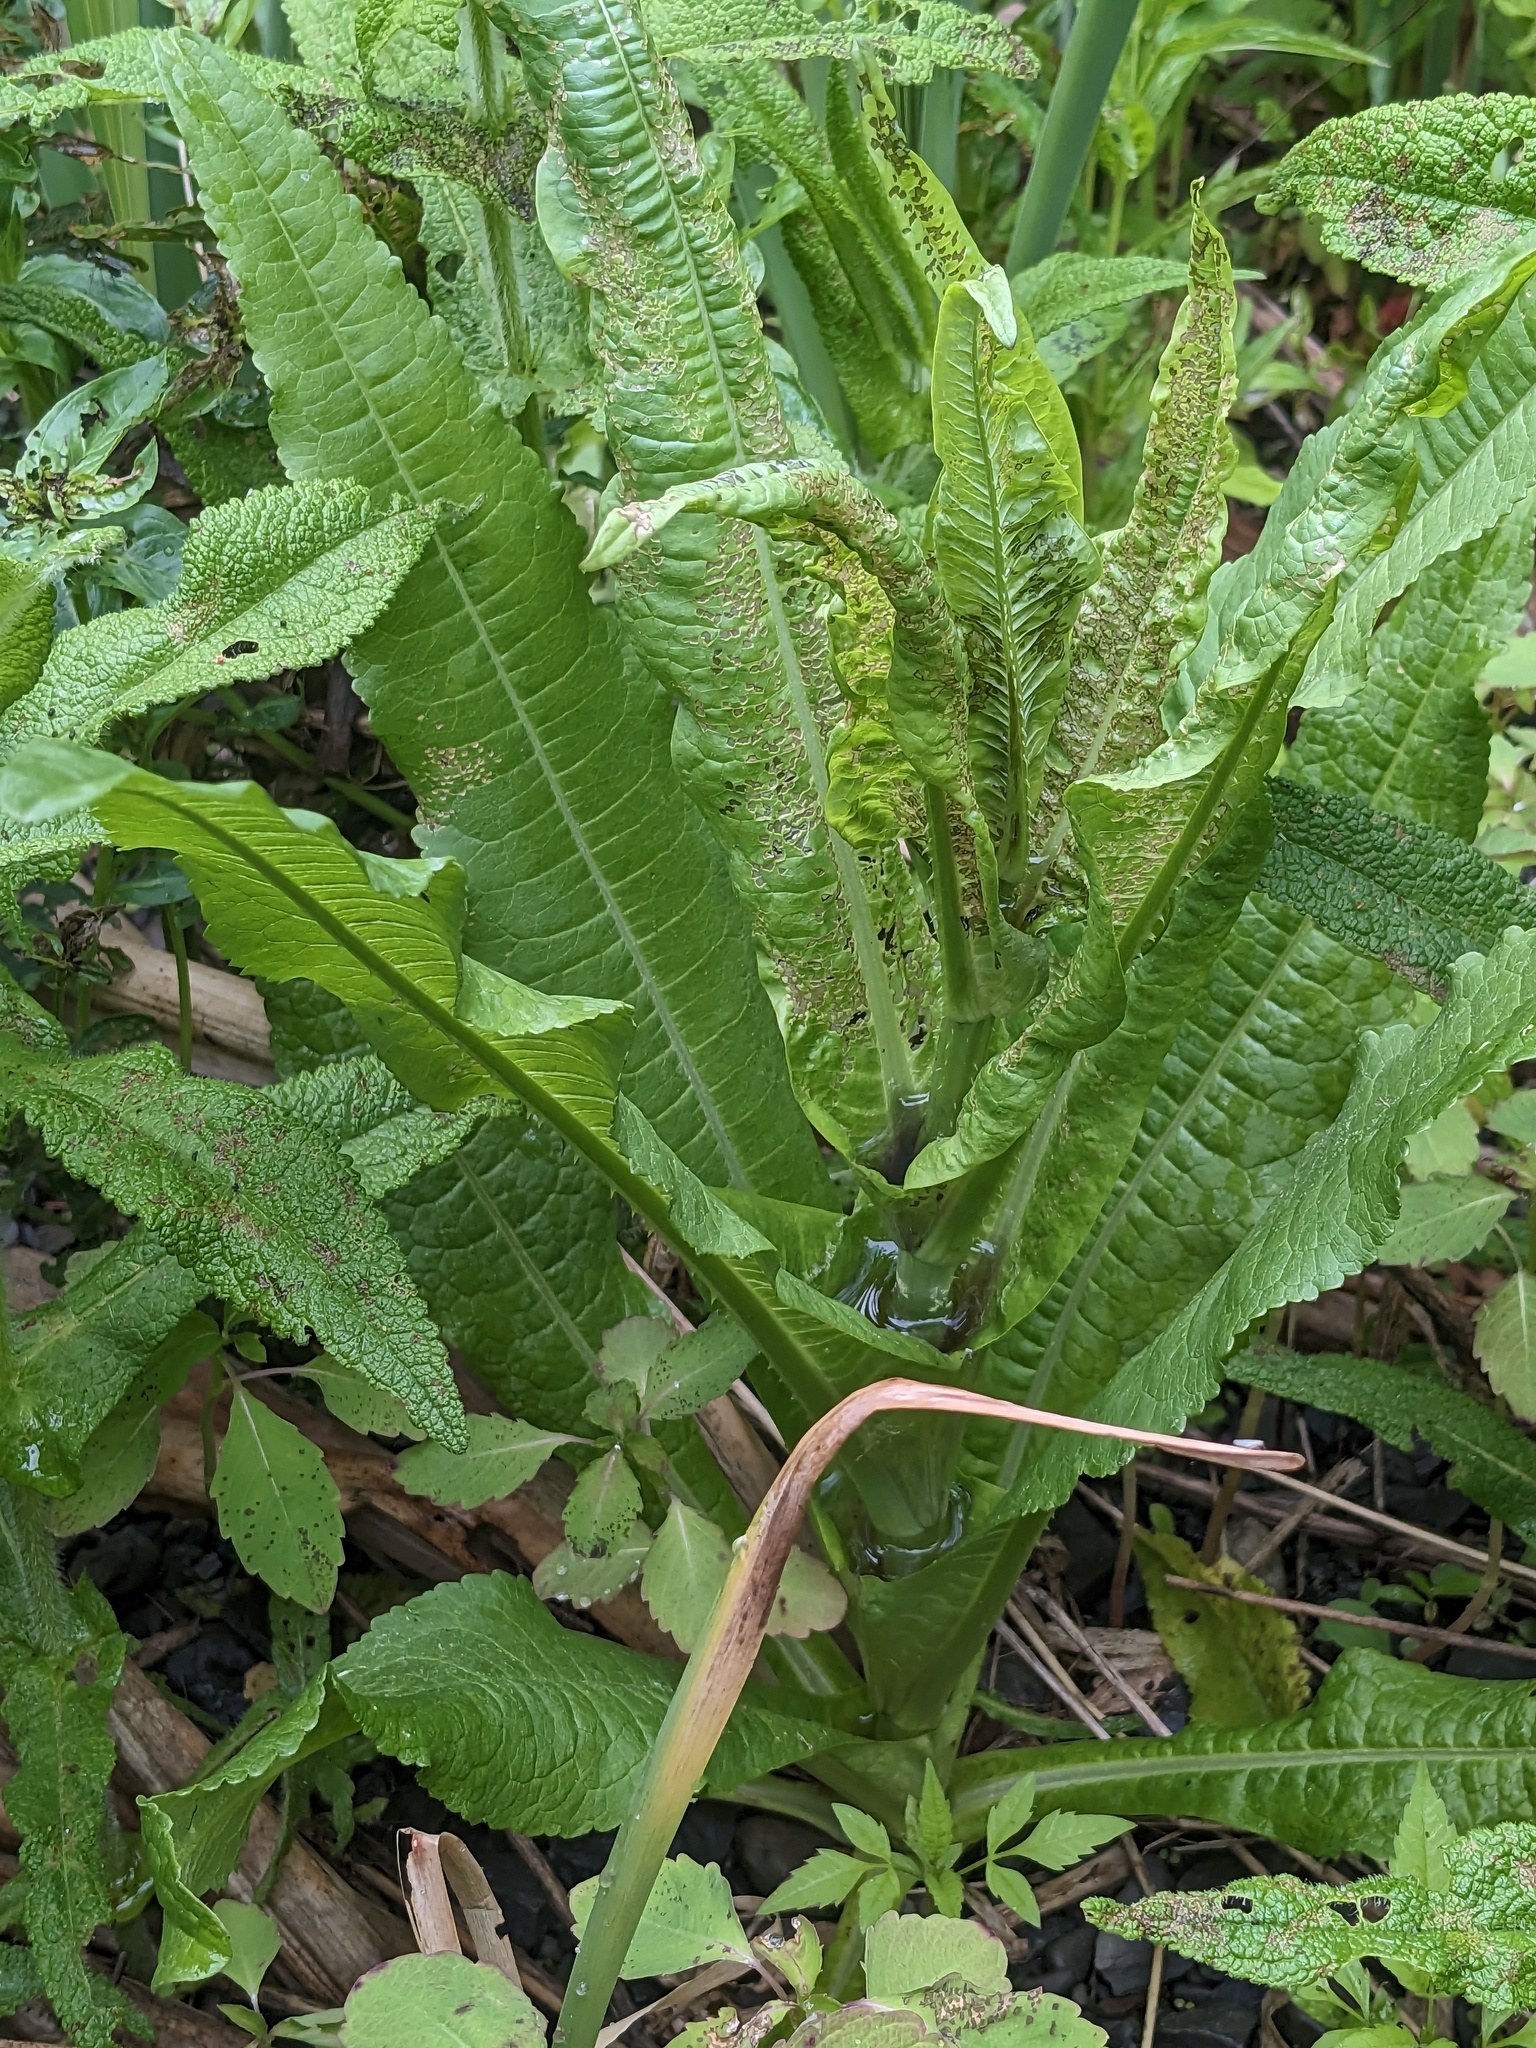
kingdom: Plantae
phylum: Tracheophyta
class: Magnoliopsida
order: Dipsacales
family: Caprifoliaceae
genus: Dipsacus
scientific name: Dipsacus fullonum
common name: Teasel
